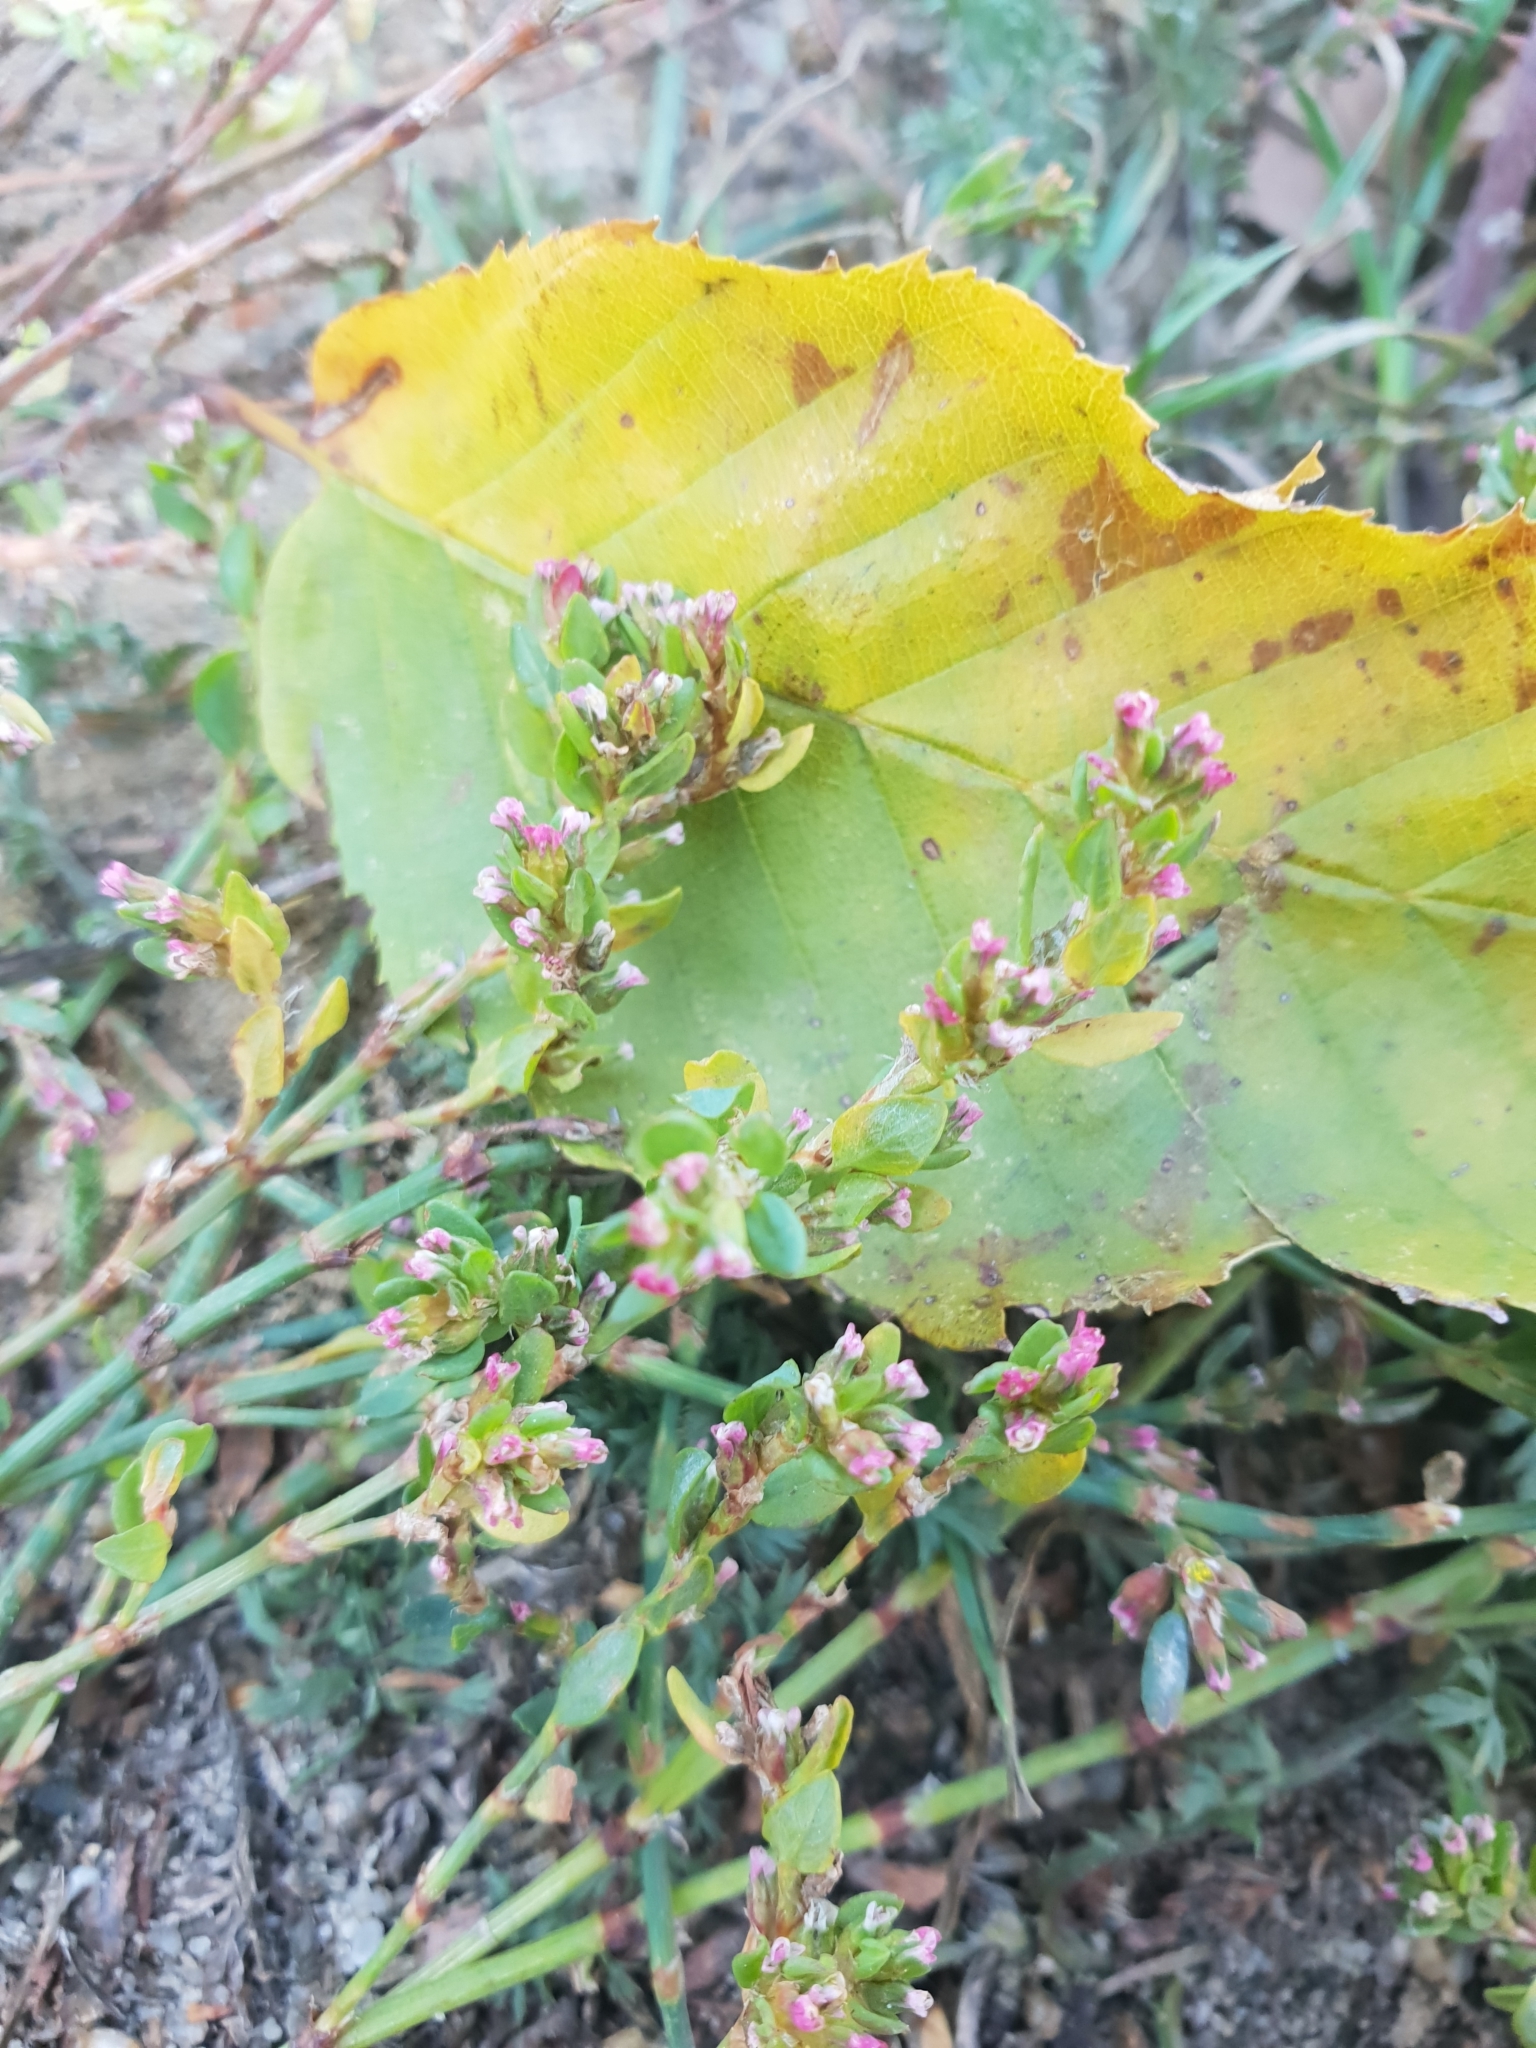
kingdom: Plantae
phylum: Tracheophyta
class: Magnoliopsida
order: Caryophyllales
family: Polygonaceae
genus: Polygonum
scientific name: Polygonum aviculare
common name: Prostrate knotweed
